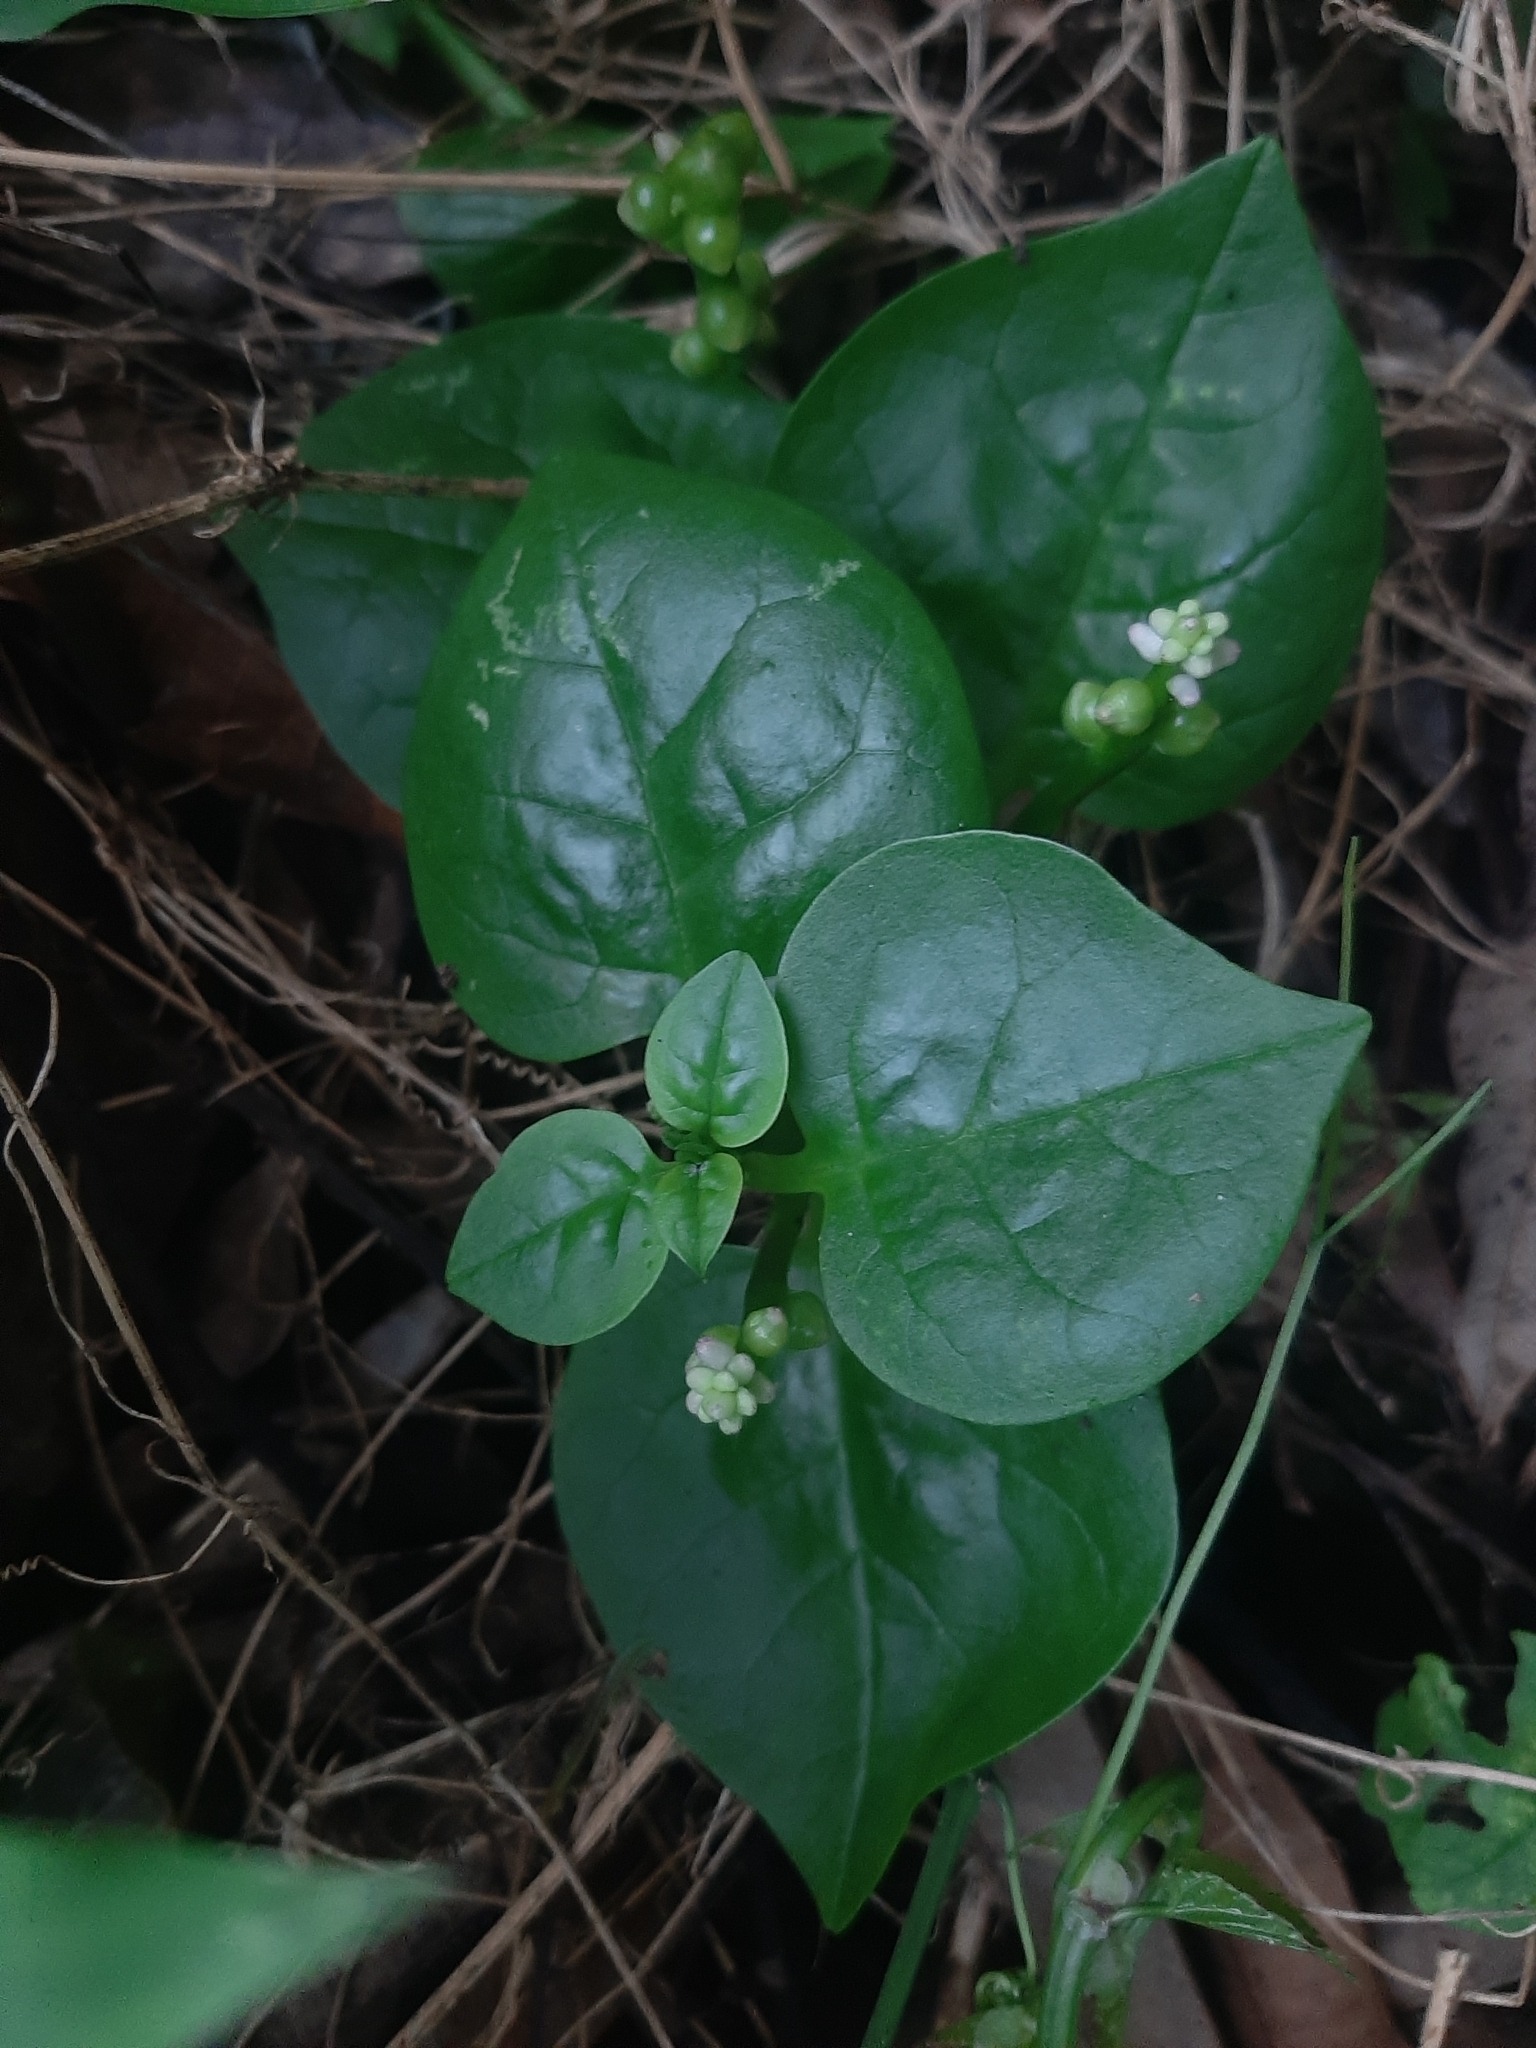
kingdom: Plantae
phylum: Tracheophyta
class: Magnoliopsida
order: Caryophyllales
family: Basellaceae
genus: Basella
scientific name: Basella alba
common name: Indian spinach
